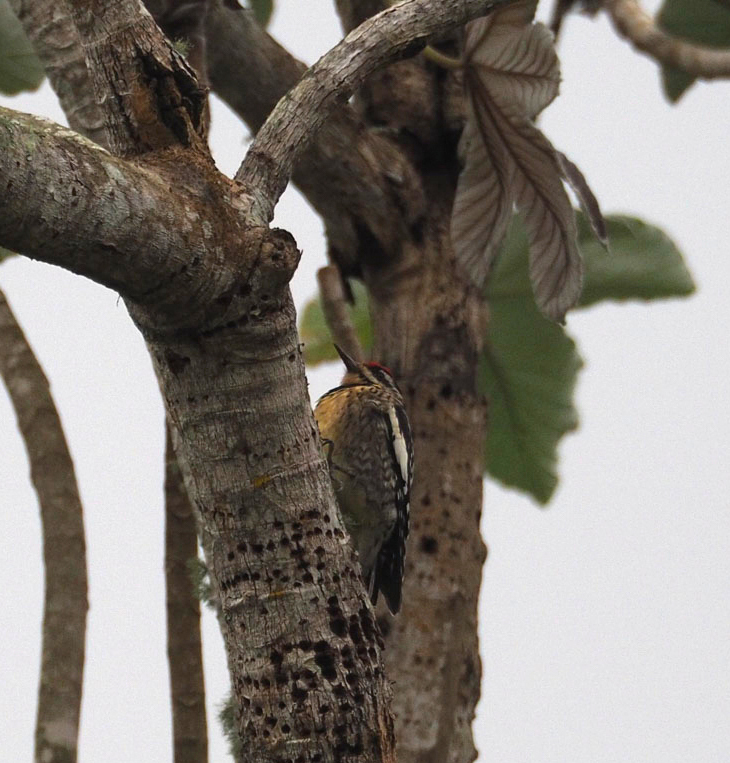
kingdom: Animalia
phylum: Chordata
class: Aves
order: Piciformes
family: Picidae
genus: Sphyrapicus
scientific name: Sphyrapicus varius
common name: Yellow-bellied sapsucker
